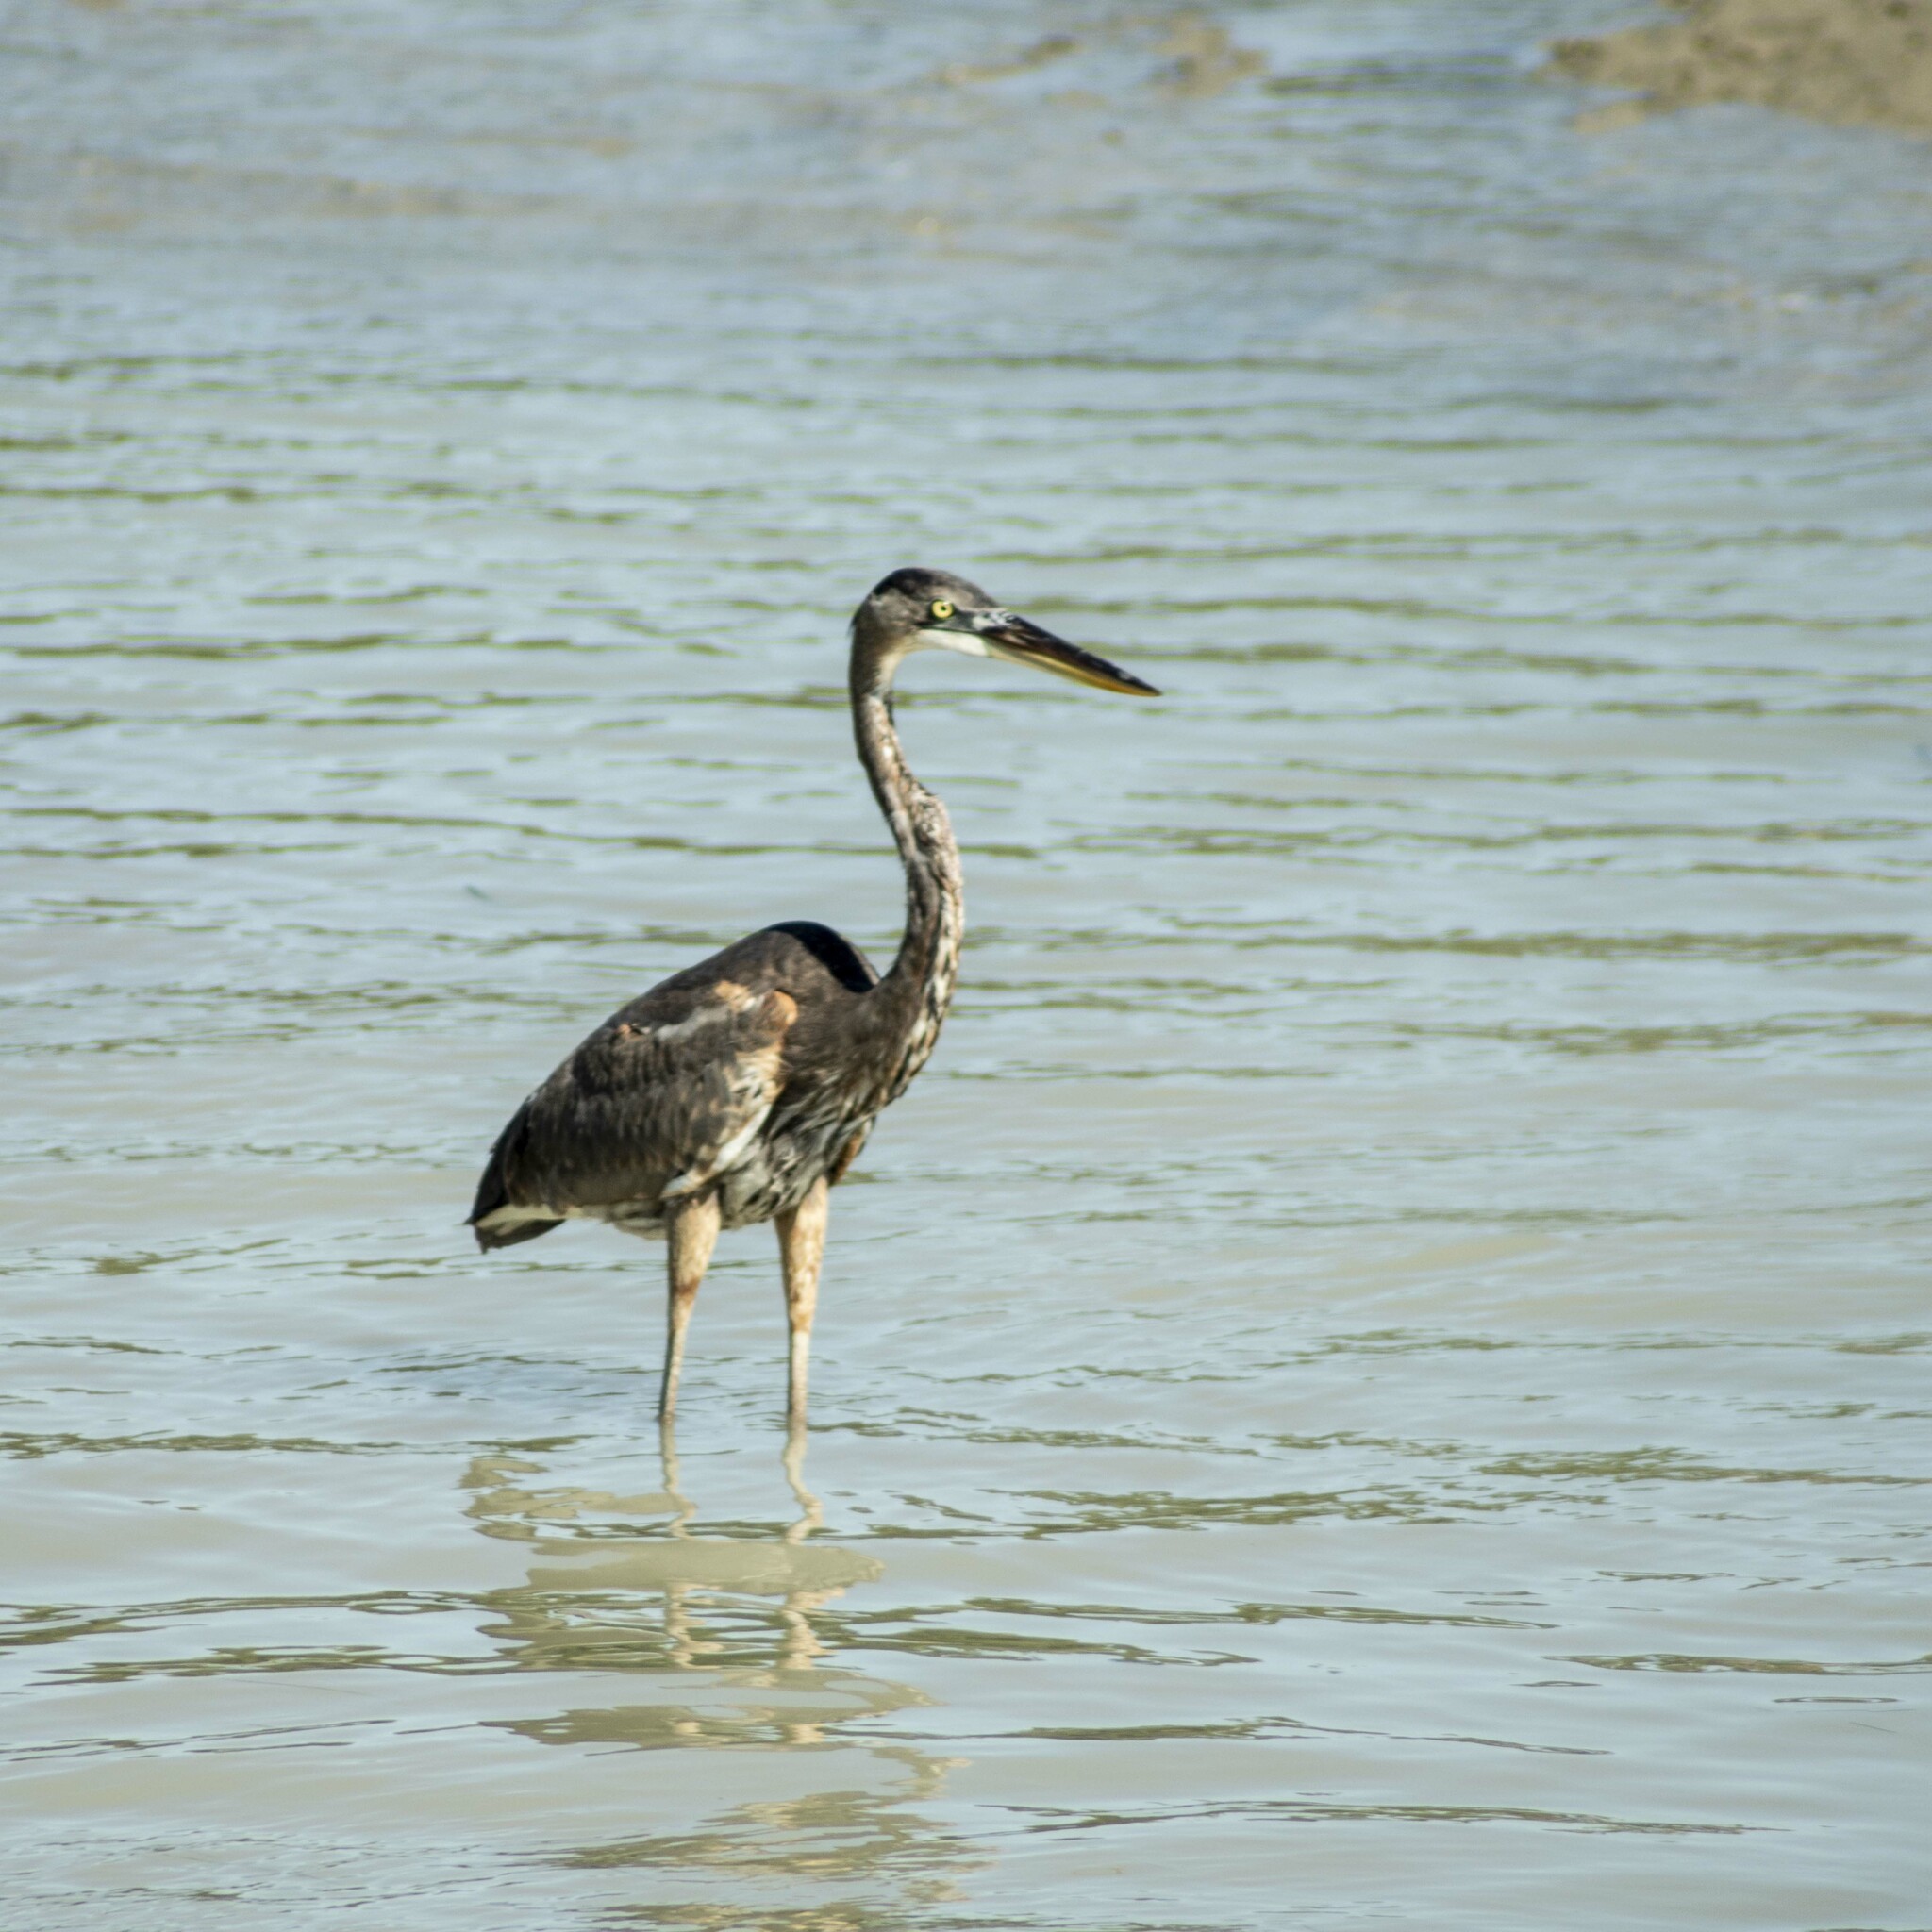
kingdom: Animalia
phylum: Chordata
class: Aves
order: Pelecaniformes
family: Ardeidae
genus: Ardea
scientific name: Ardea herodias
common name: Great blue heron
